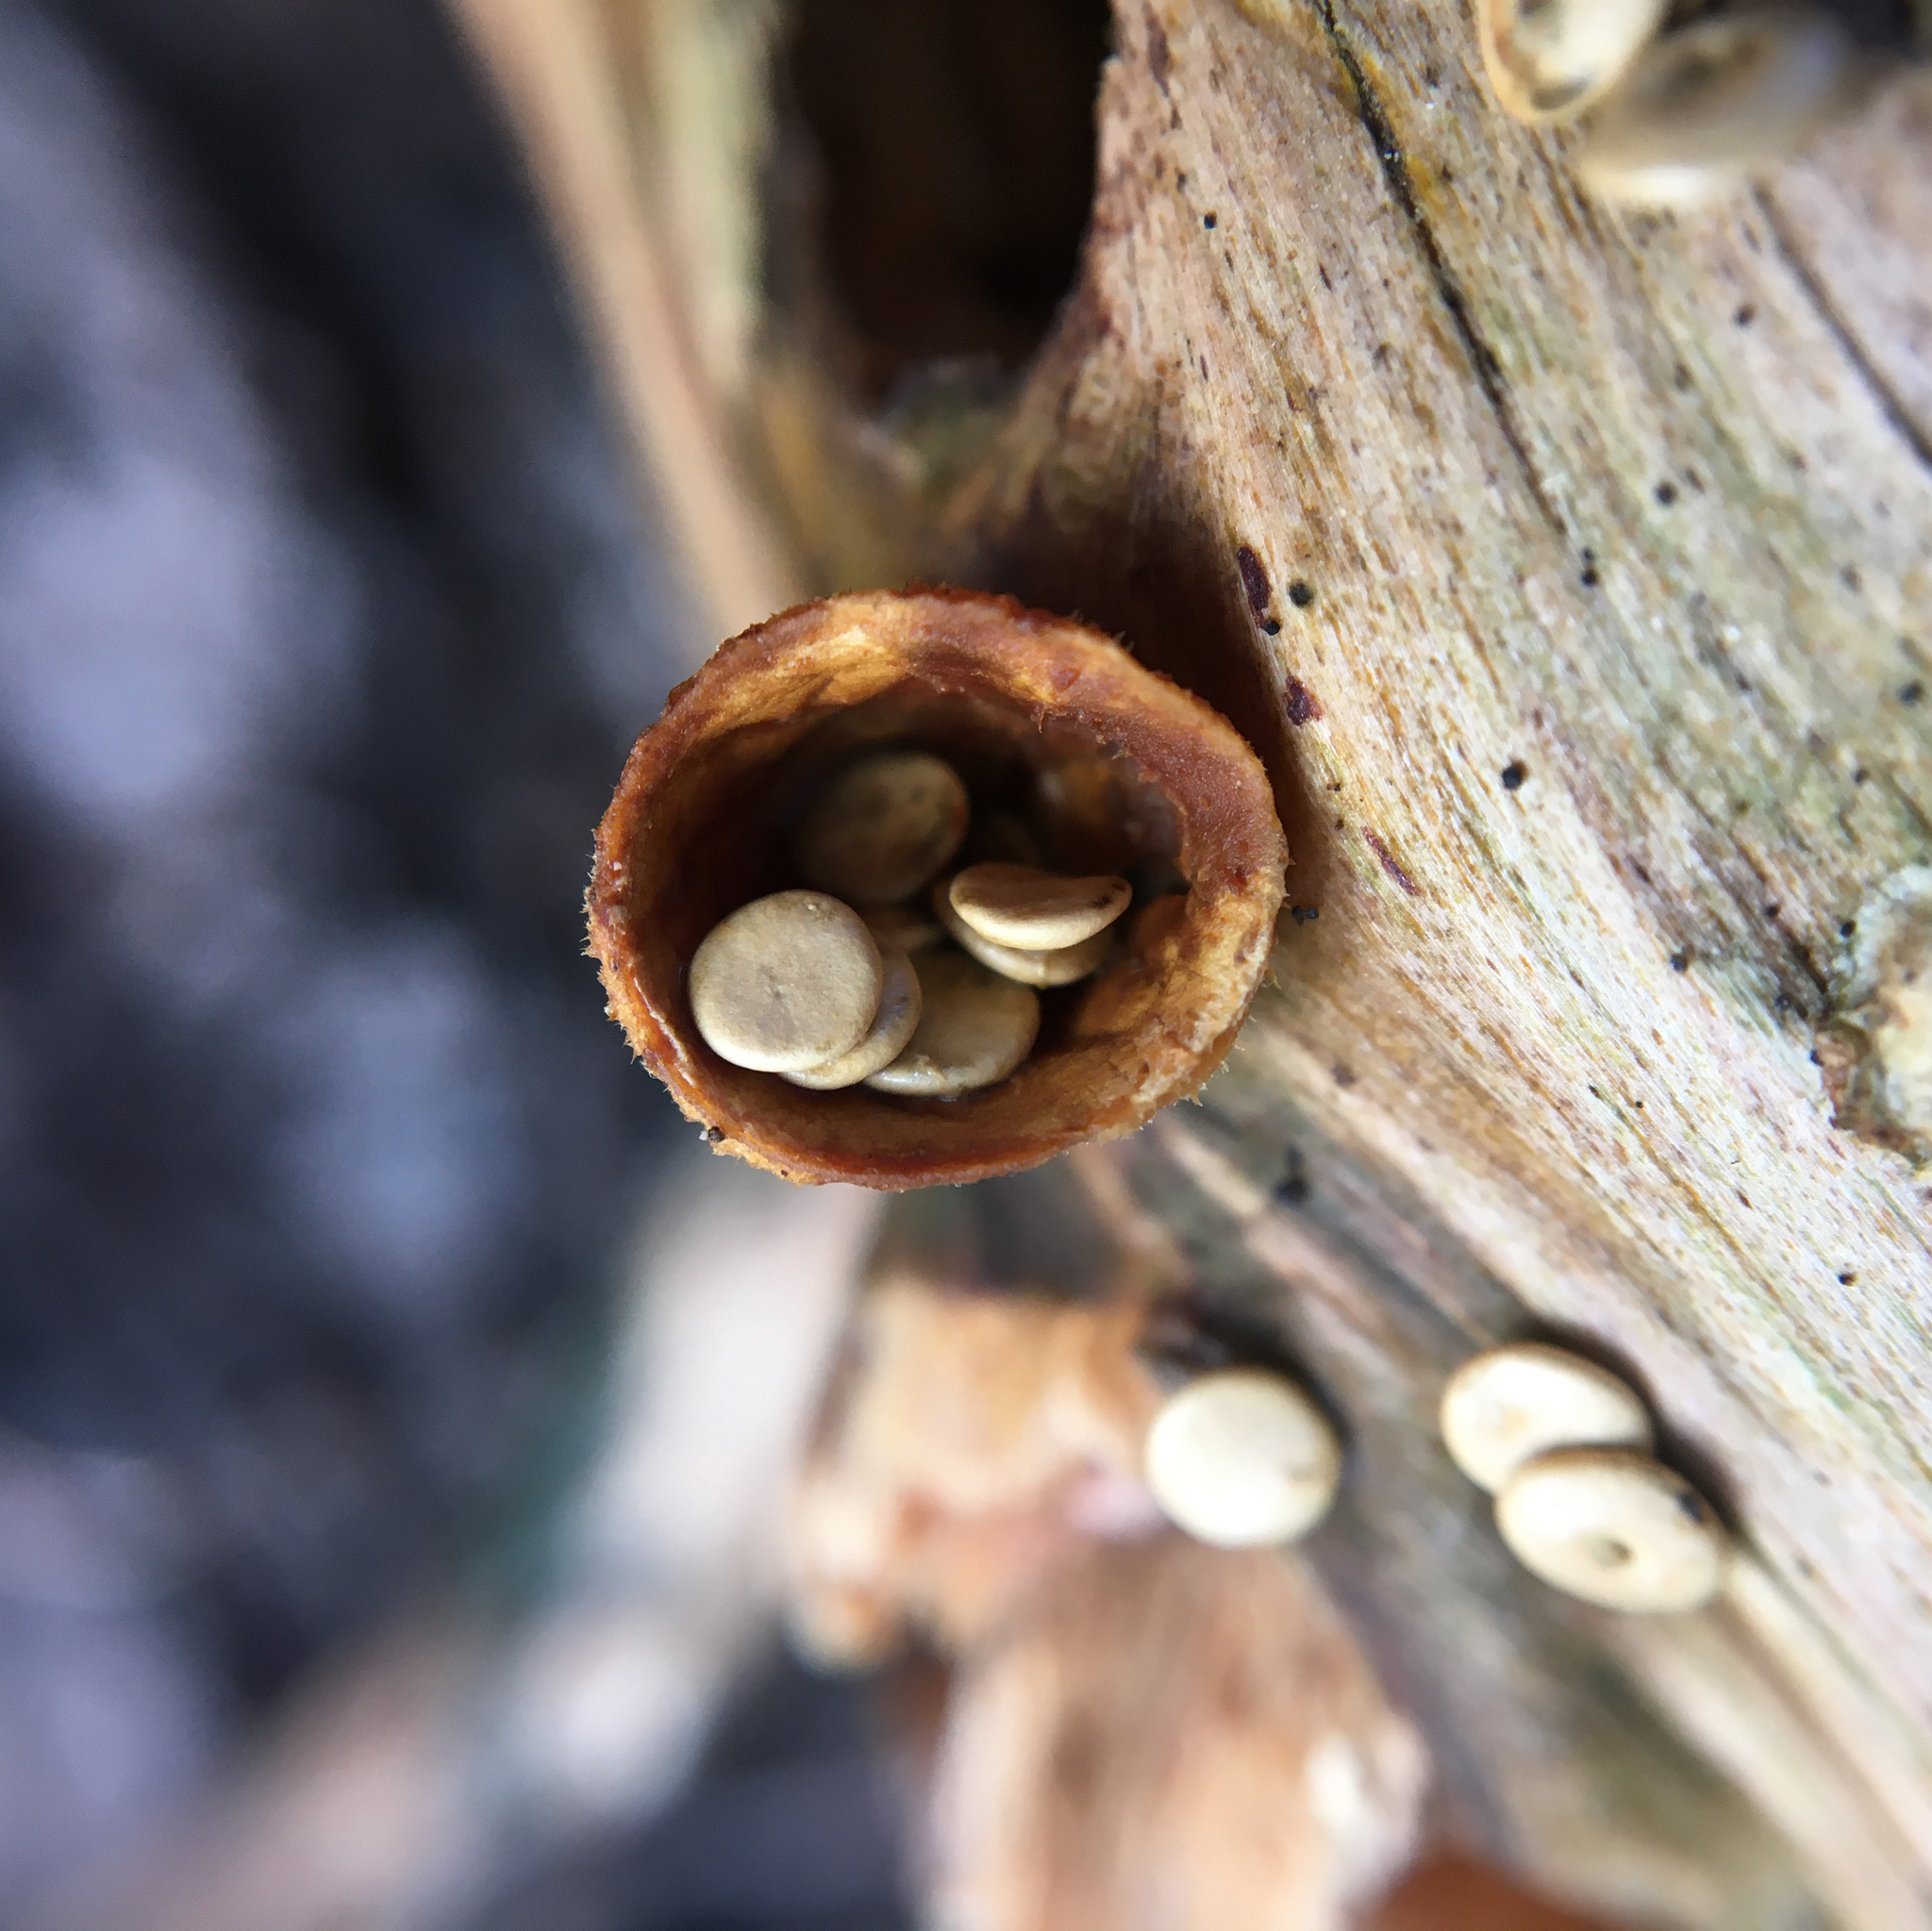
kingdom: Fungi
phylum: Basidiomycota
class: Agaricomycetes
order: Agaricales
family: Nidulariaceae
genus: Crucibulum
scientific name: Crucibulum laeve
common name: Common bird's nest
